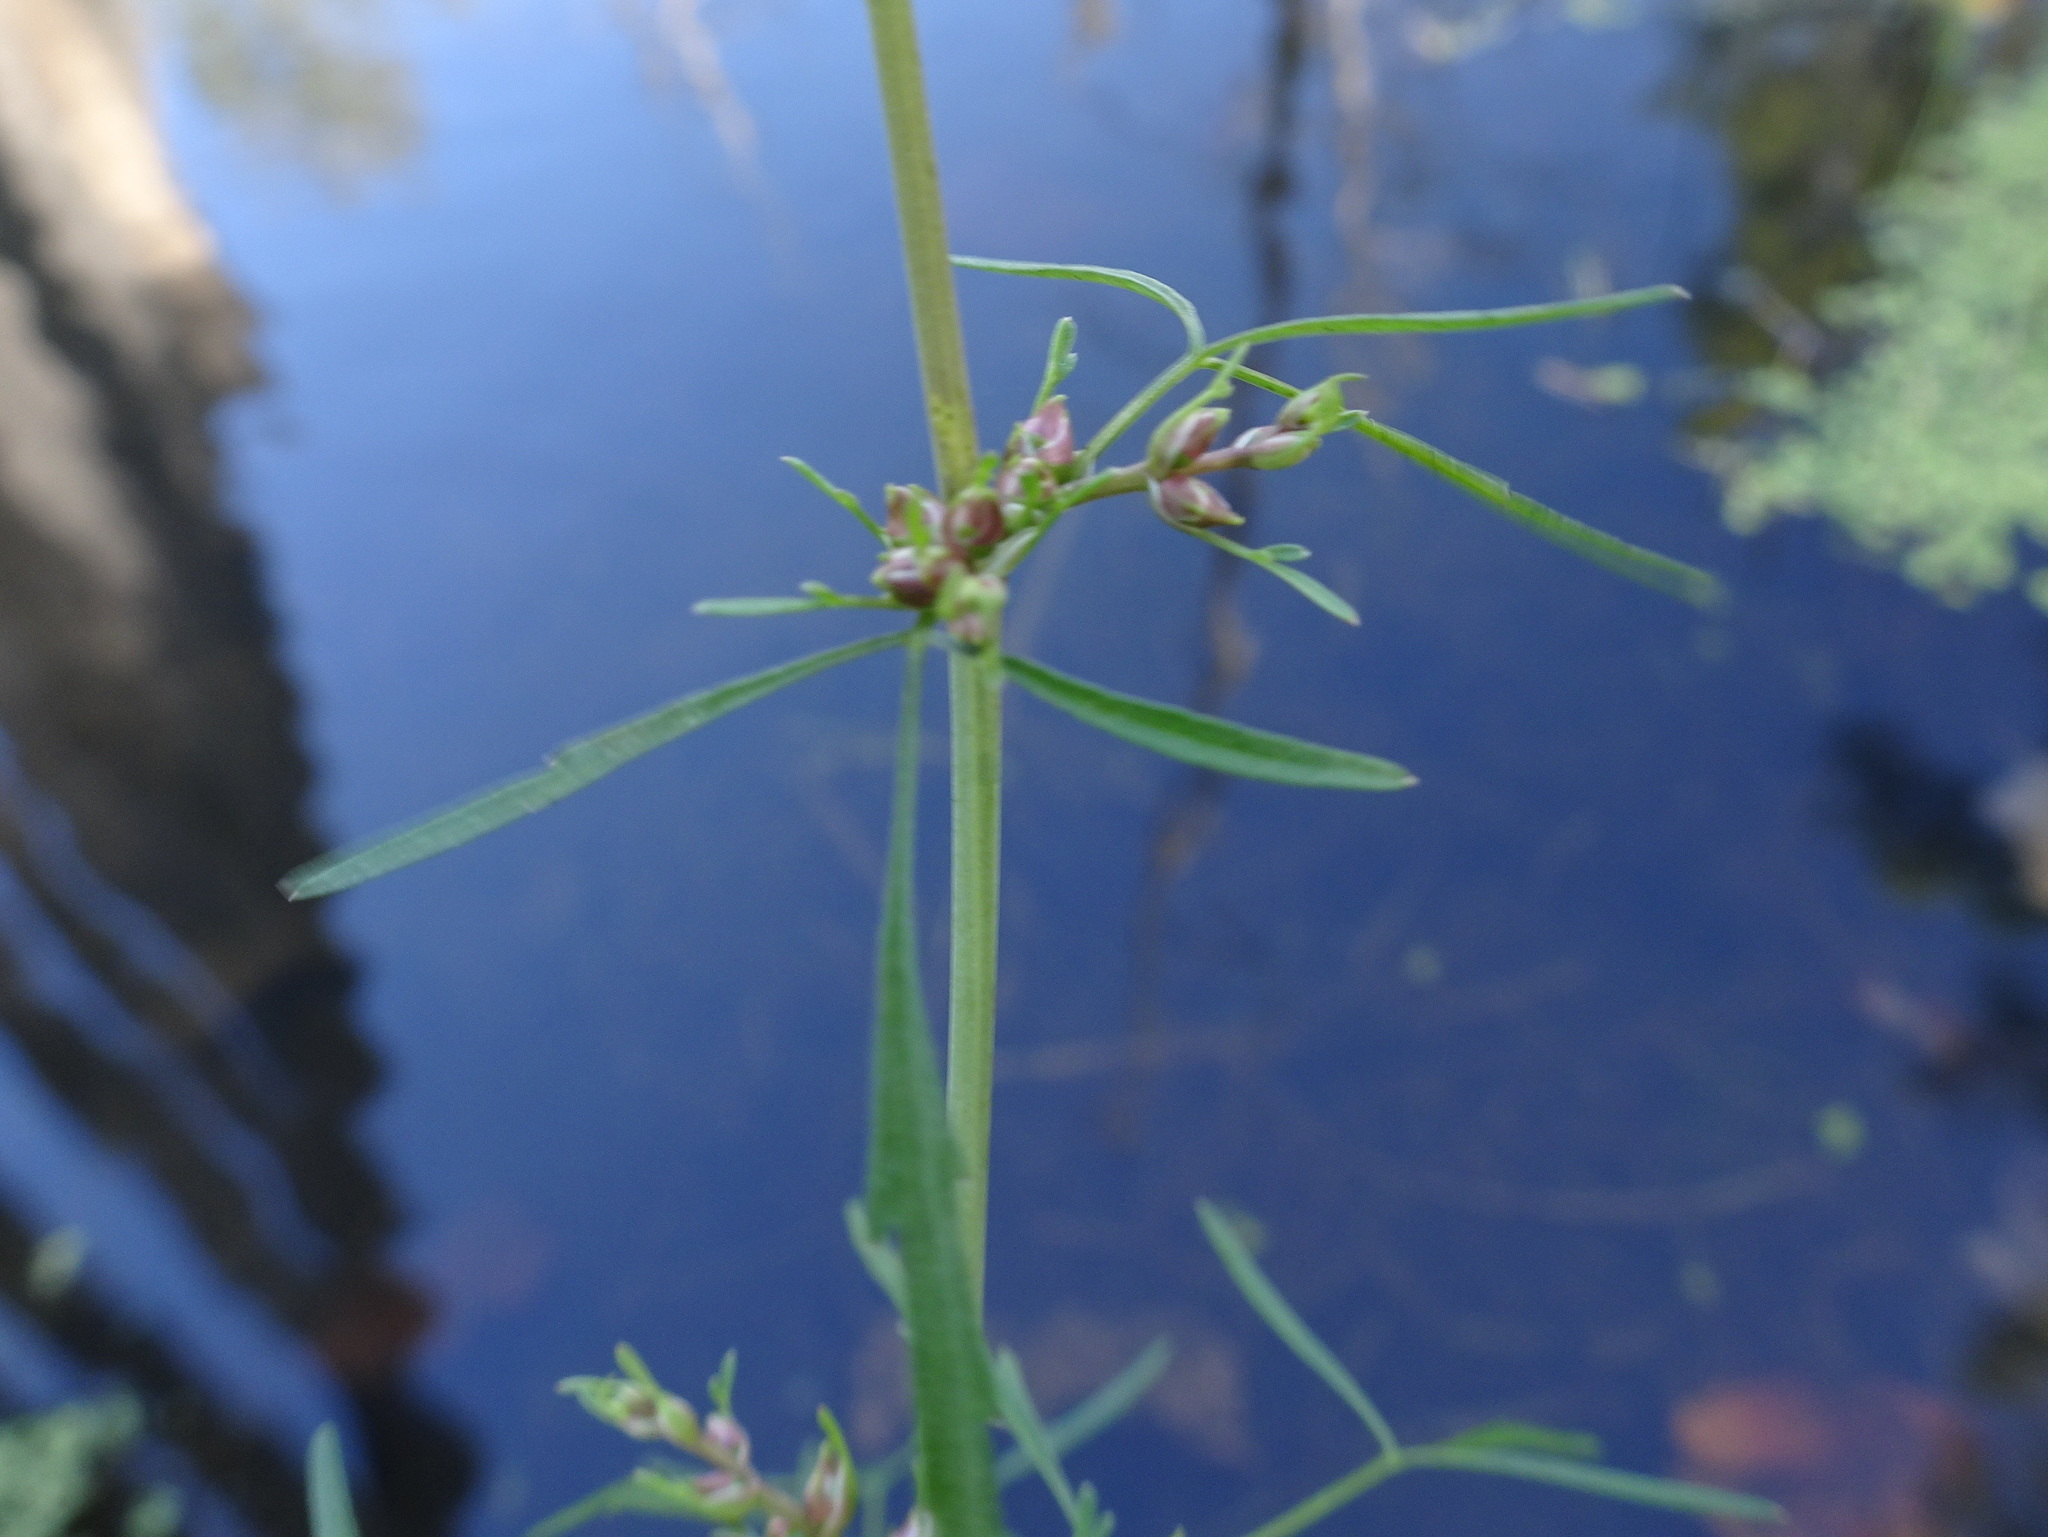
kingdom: Plantae
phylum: Tracheophyta
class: Magnoliopsida
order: Apiales
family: Apiaceae
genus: Cicuta
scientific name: Cicuta bulbifera
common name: Bulb-bearing water-hemlock
